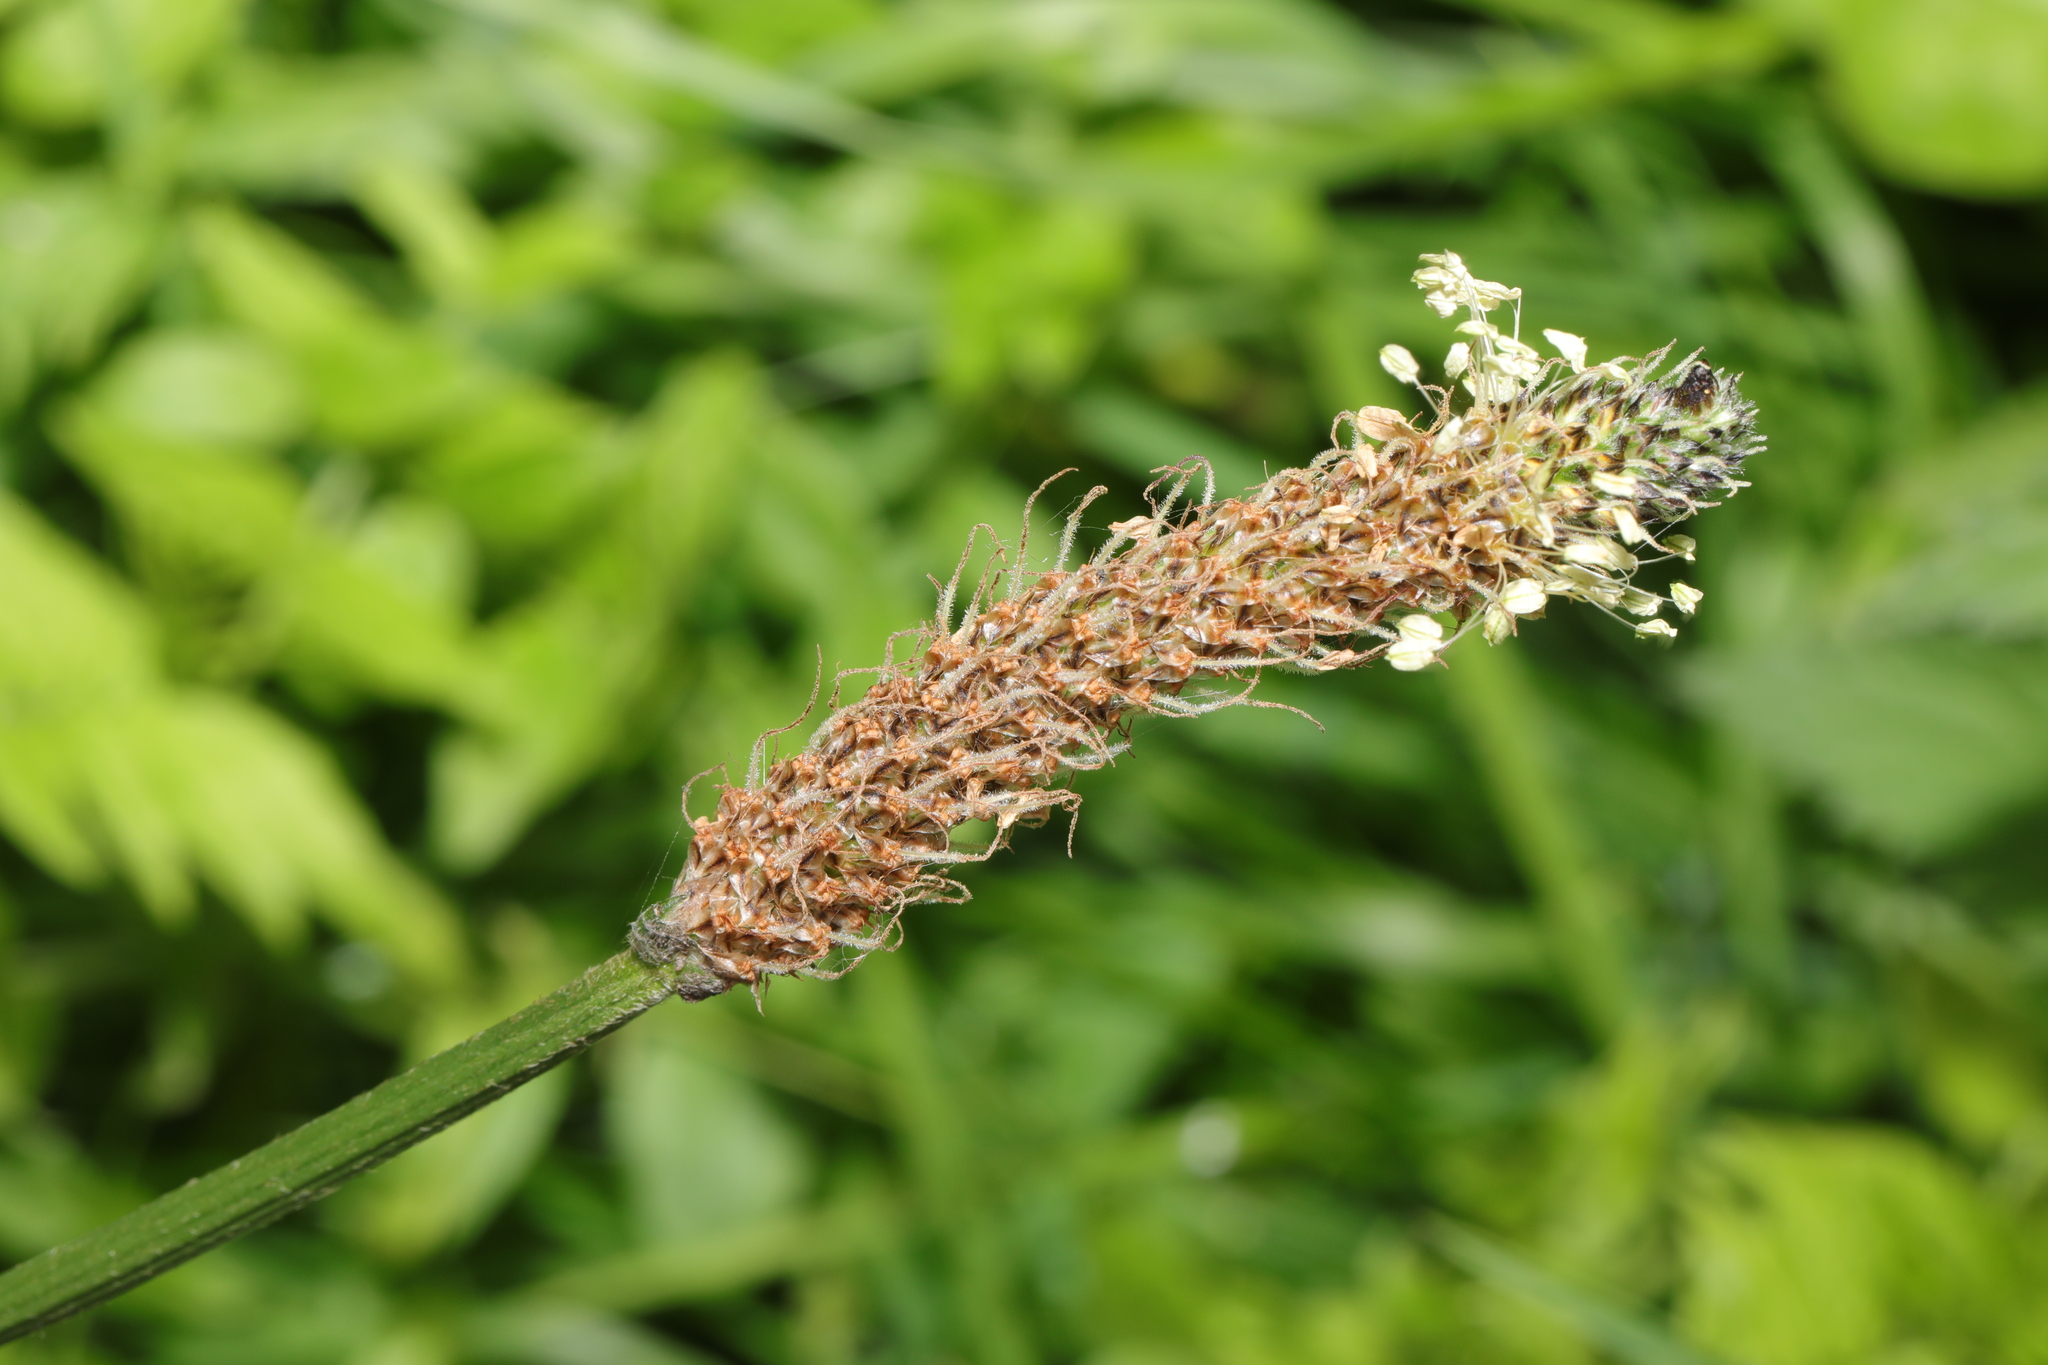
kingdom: Plantae
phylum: Tracheophyta
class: Magnoliopsida
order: Lamiales
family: Plantaginaceae
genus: Plantago
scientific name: Plantago lanceolata
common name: Ribwort plantain
